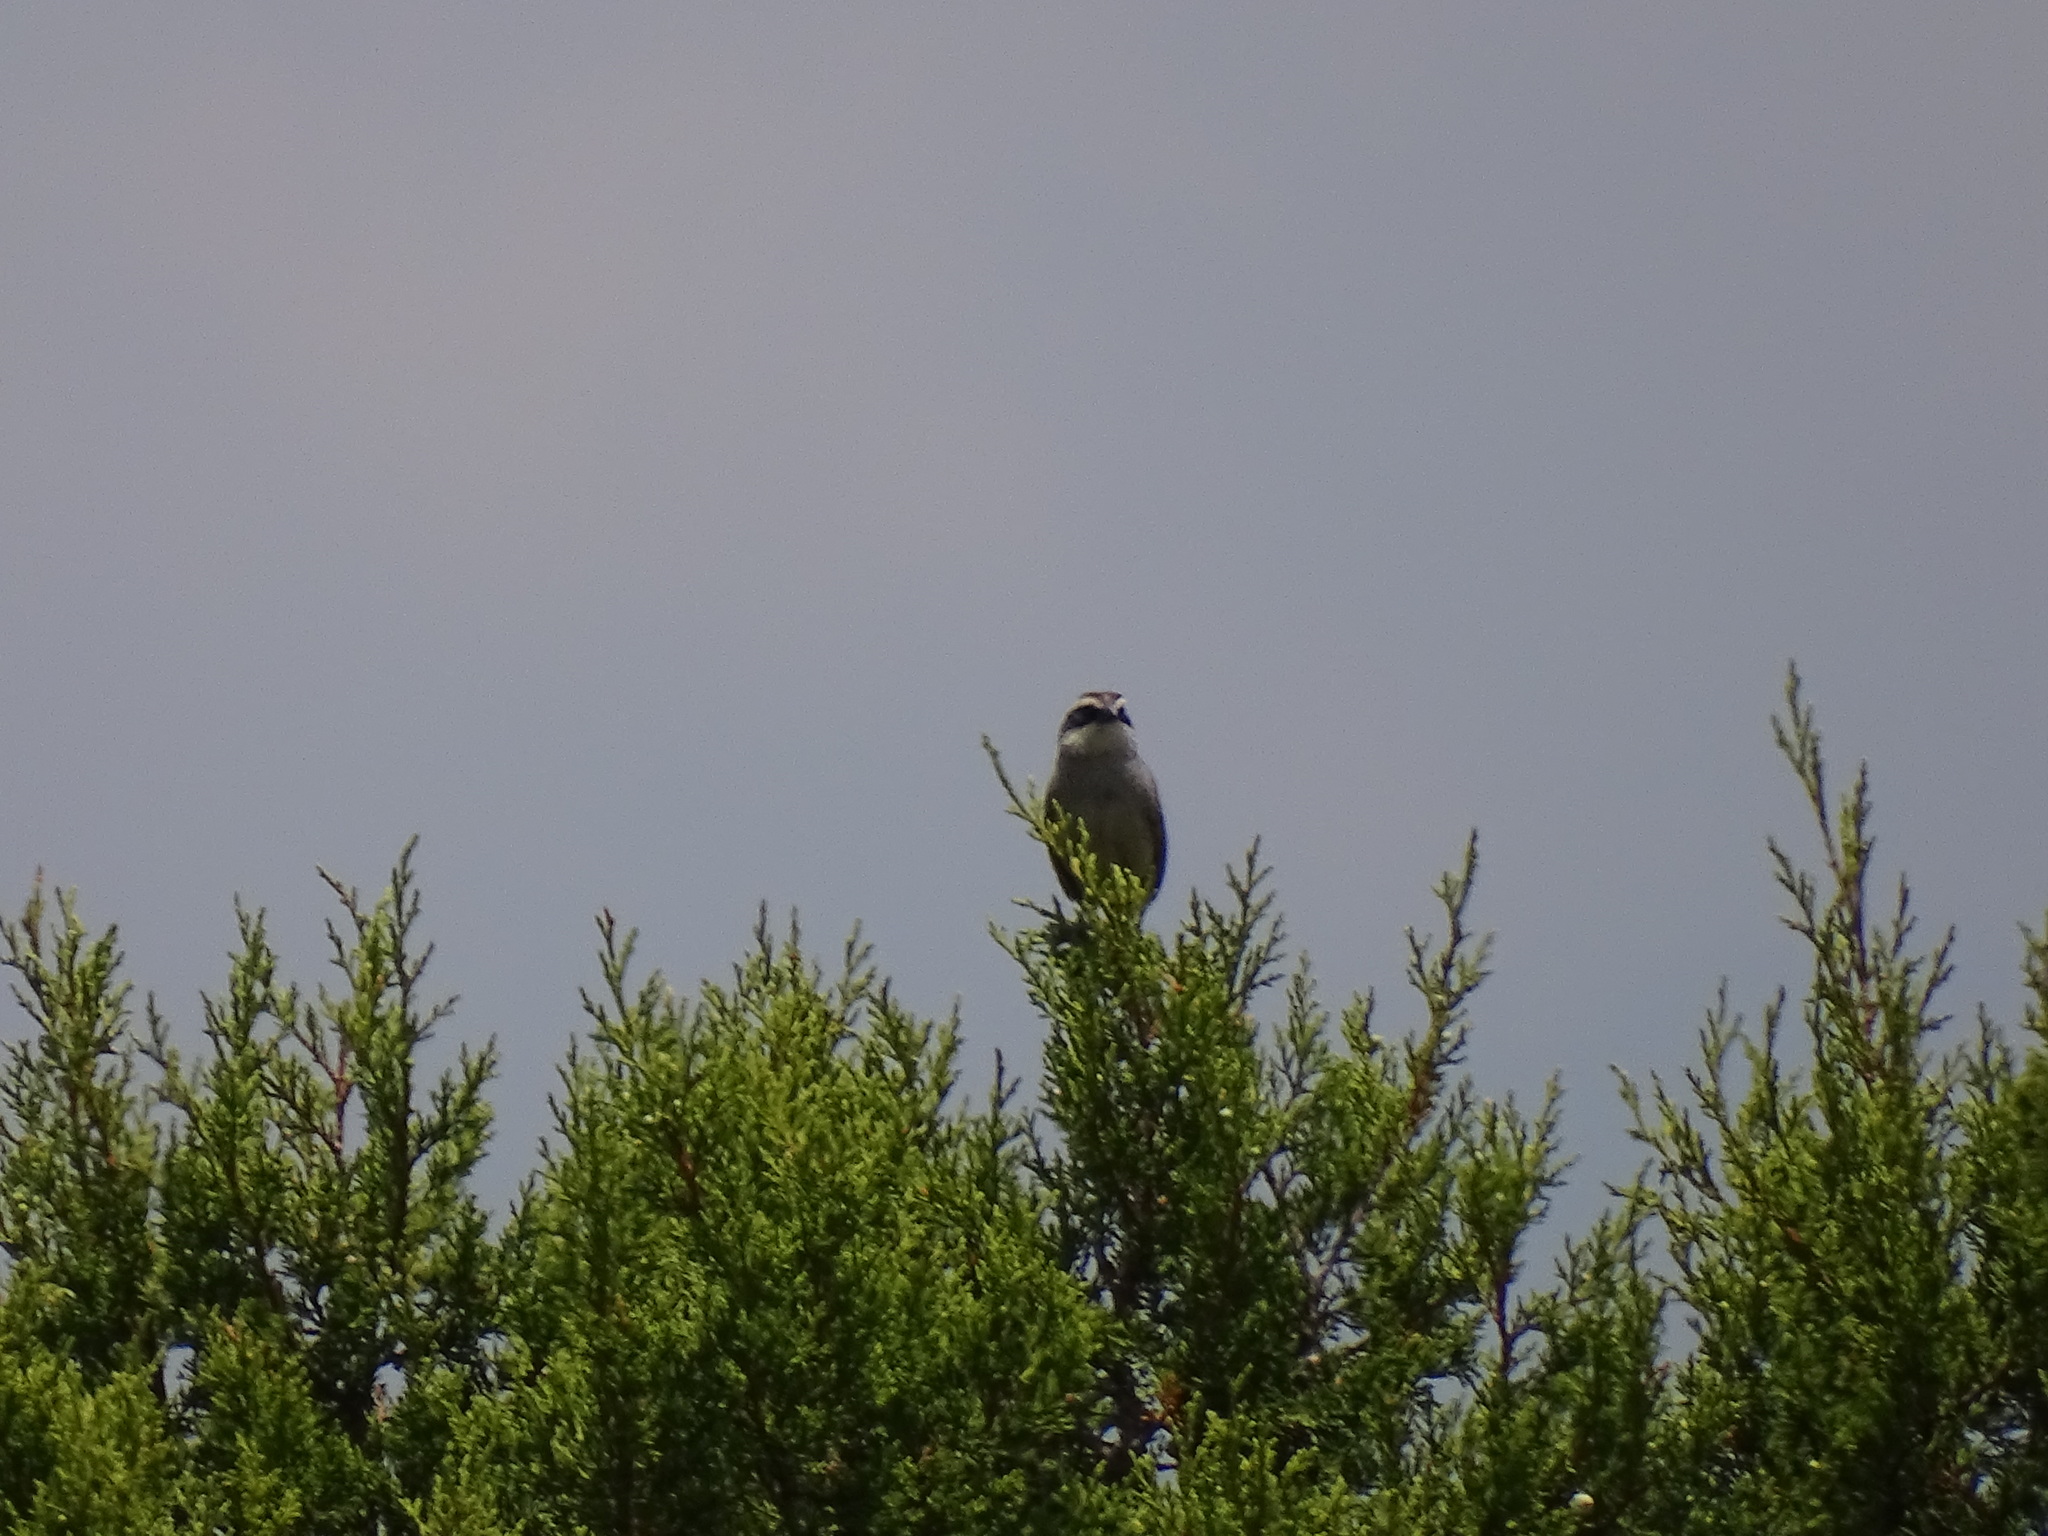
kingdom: Animalia
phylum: Chordata
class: Aves
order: Passeriformes
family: Passerellidae
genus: Oriturus
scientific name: Oriturus superciliosus
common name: Striped sparrow
